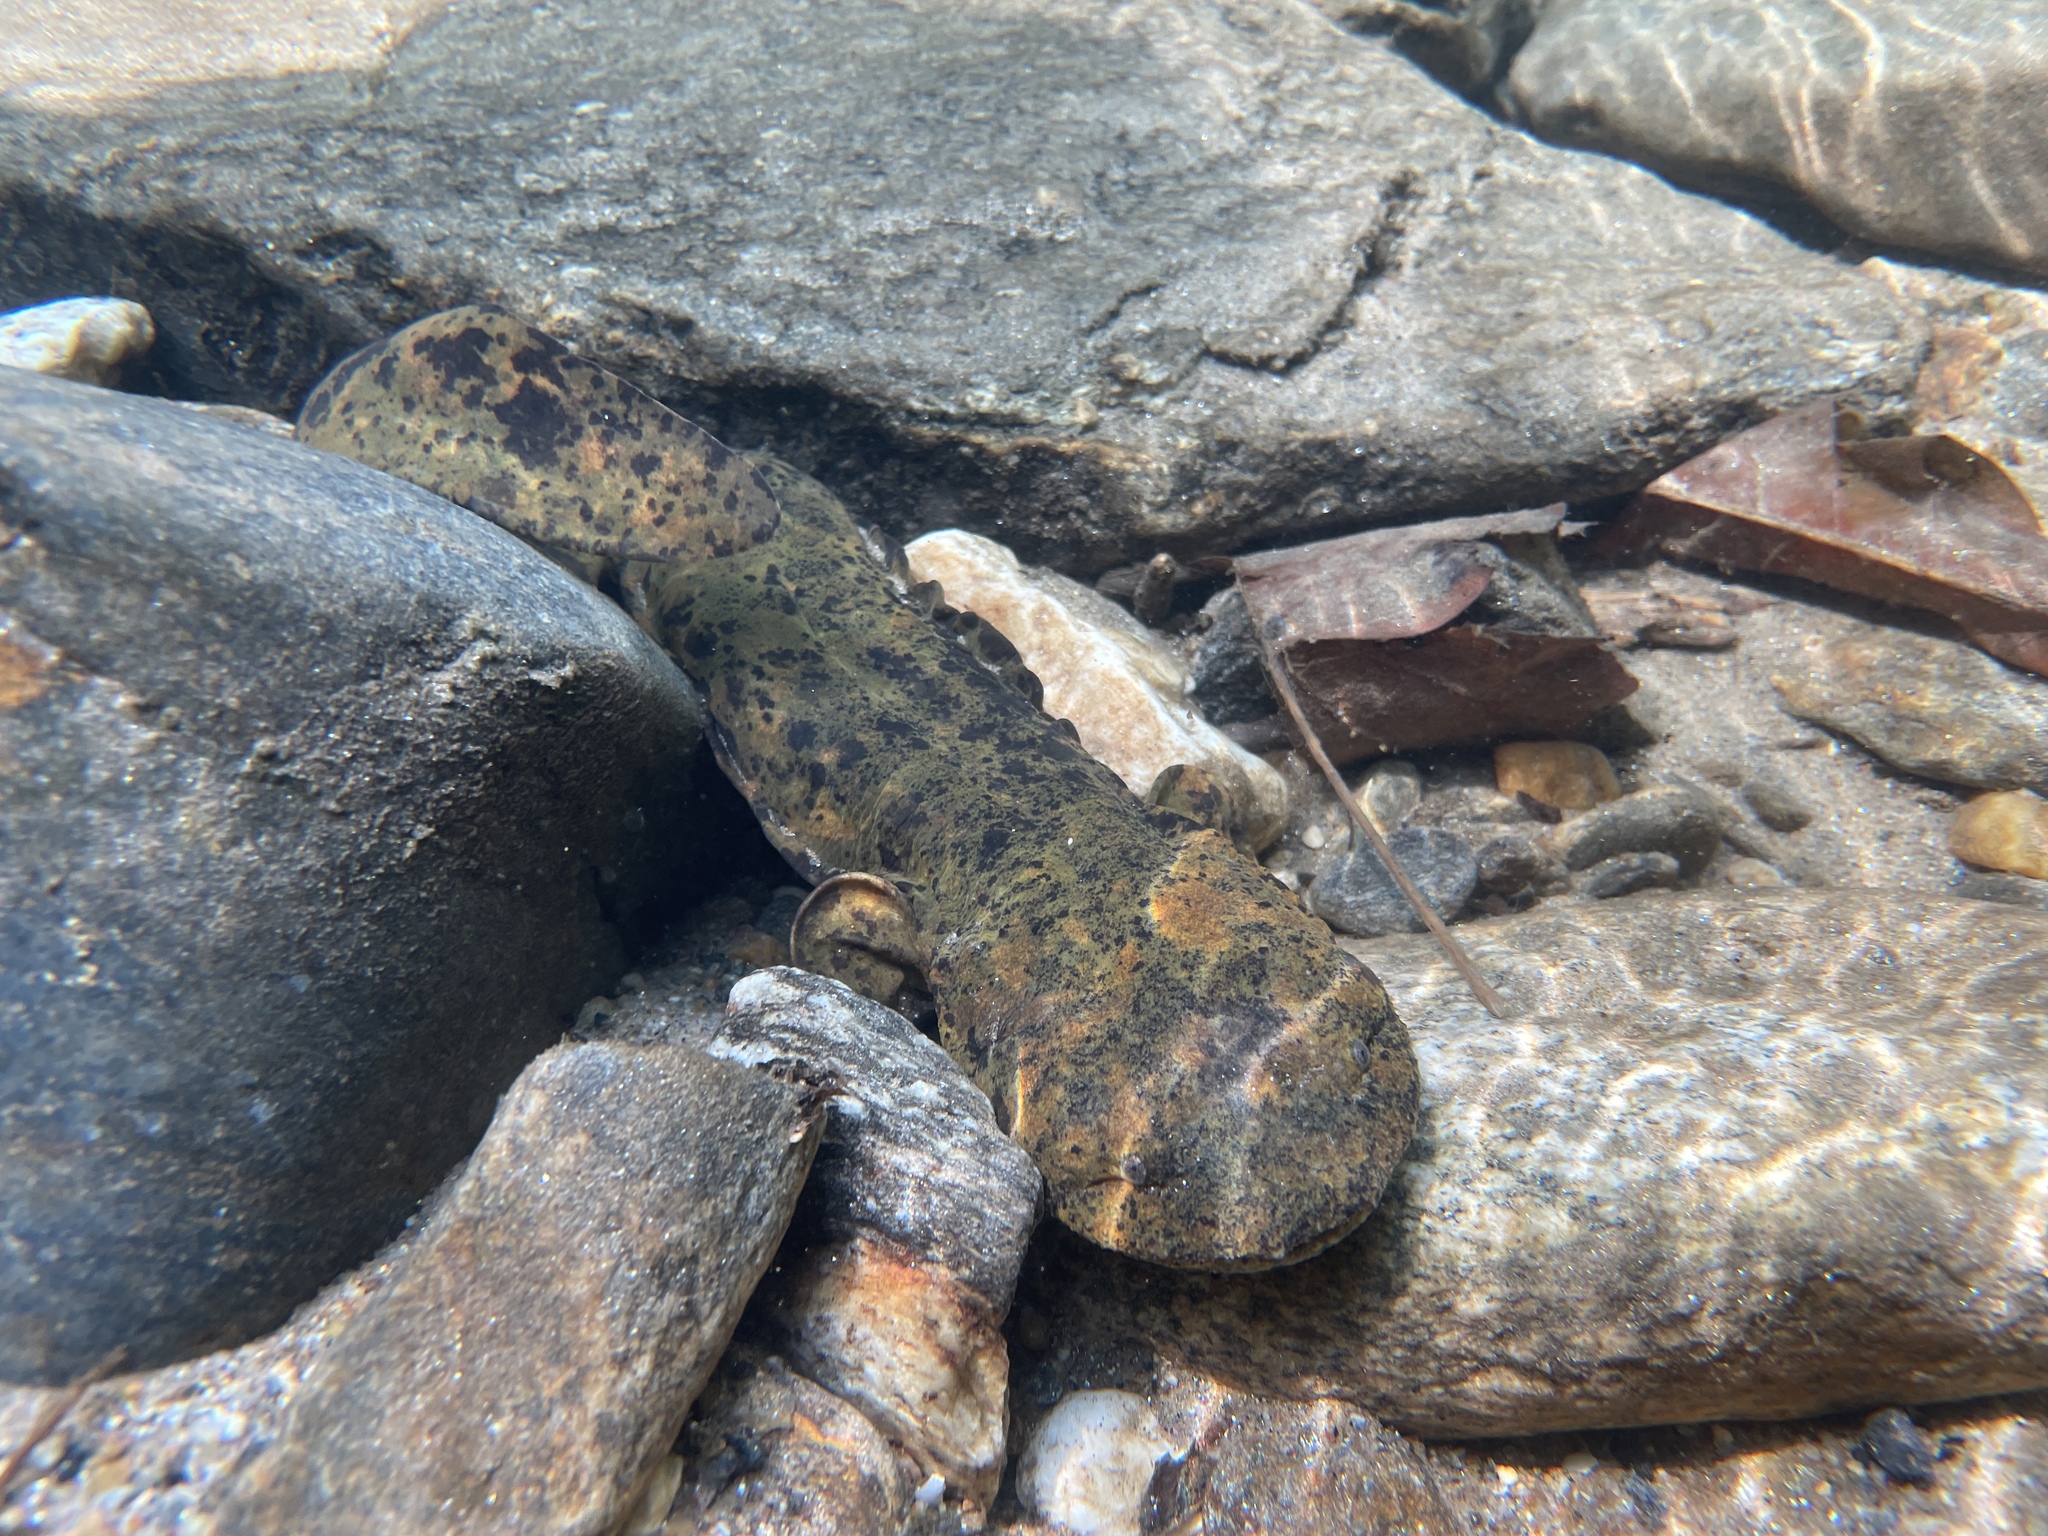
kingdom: Animalia
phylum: Chordata
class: Amphibia
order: Caudata
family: Cryptobranchidae
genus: Cryptobranchus
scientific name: Cryptobranchus alleganiensis
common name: Hellbender
